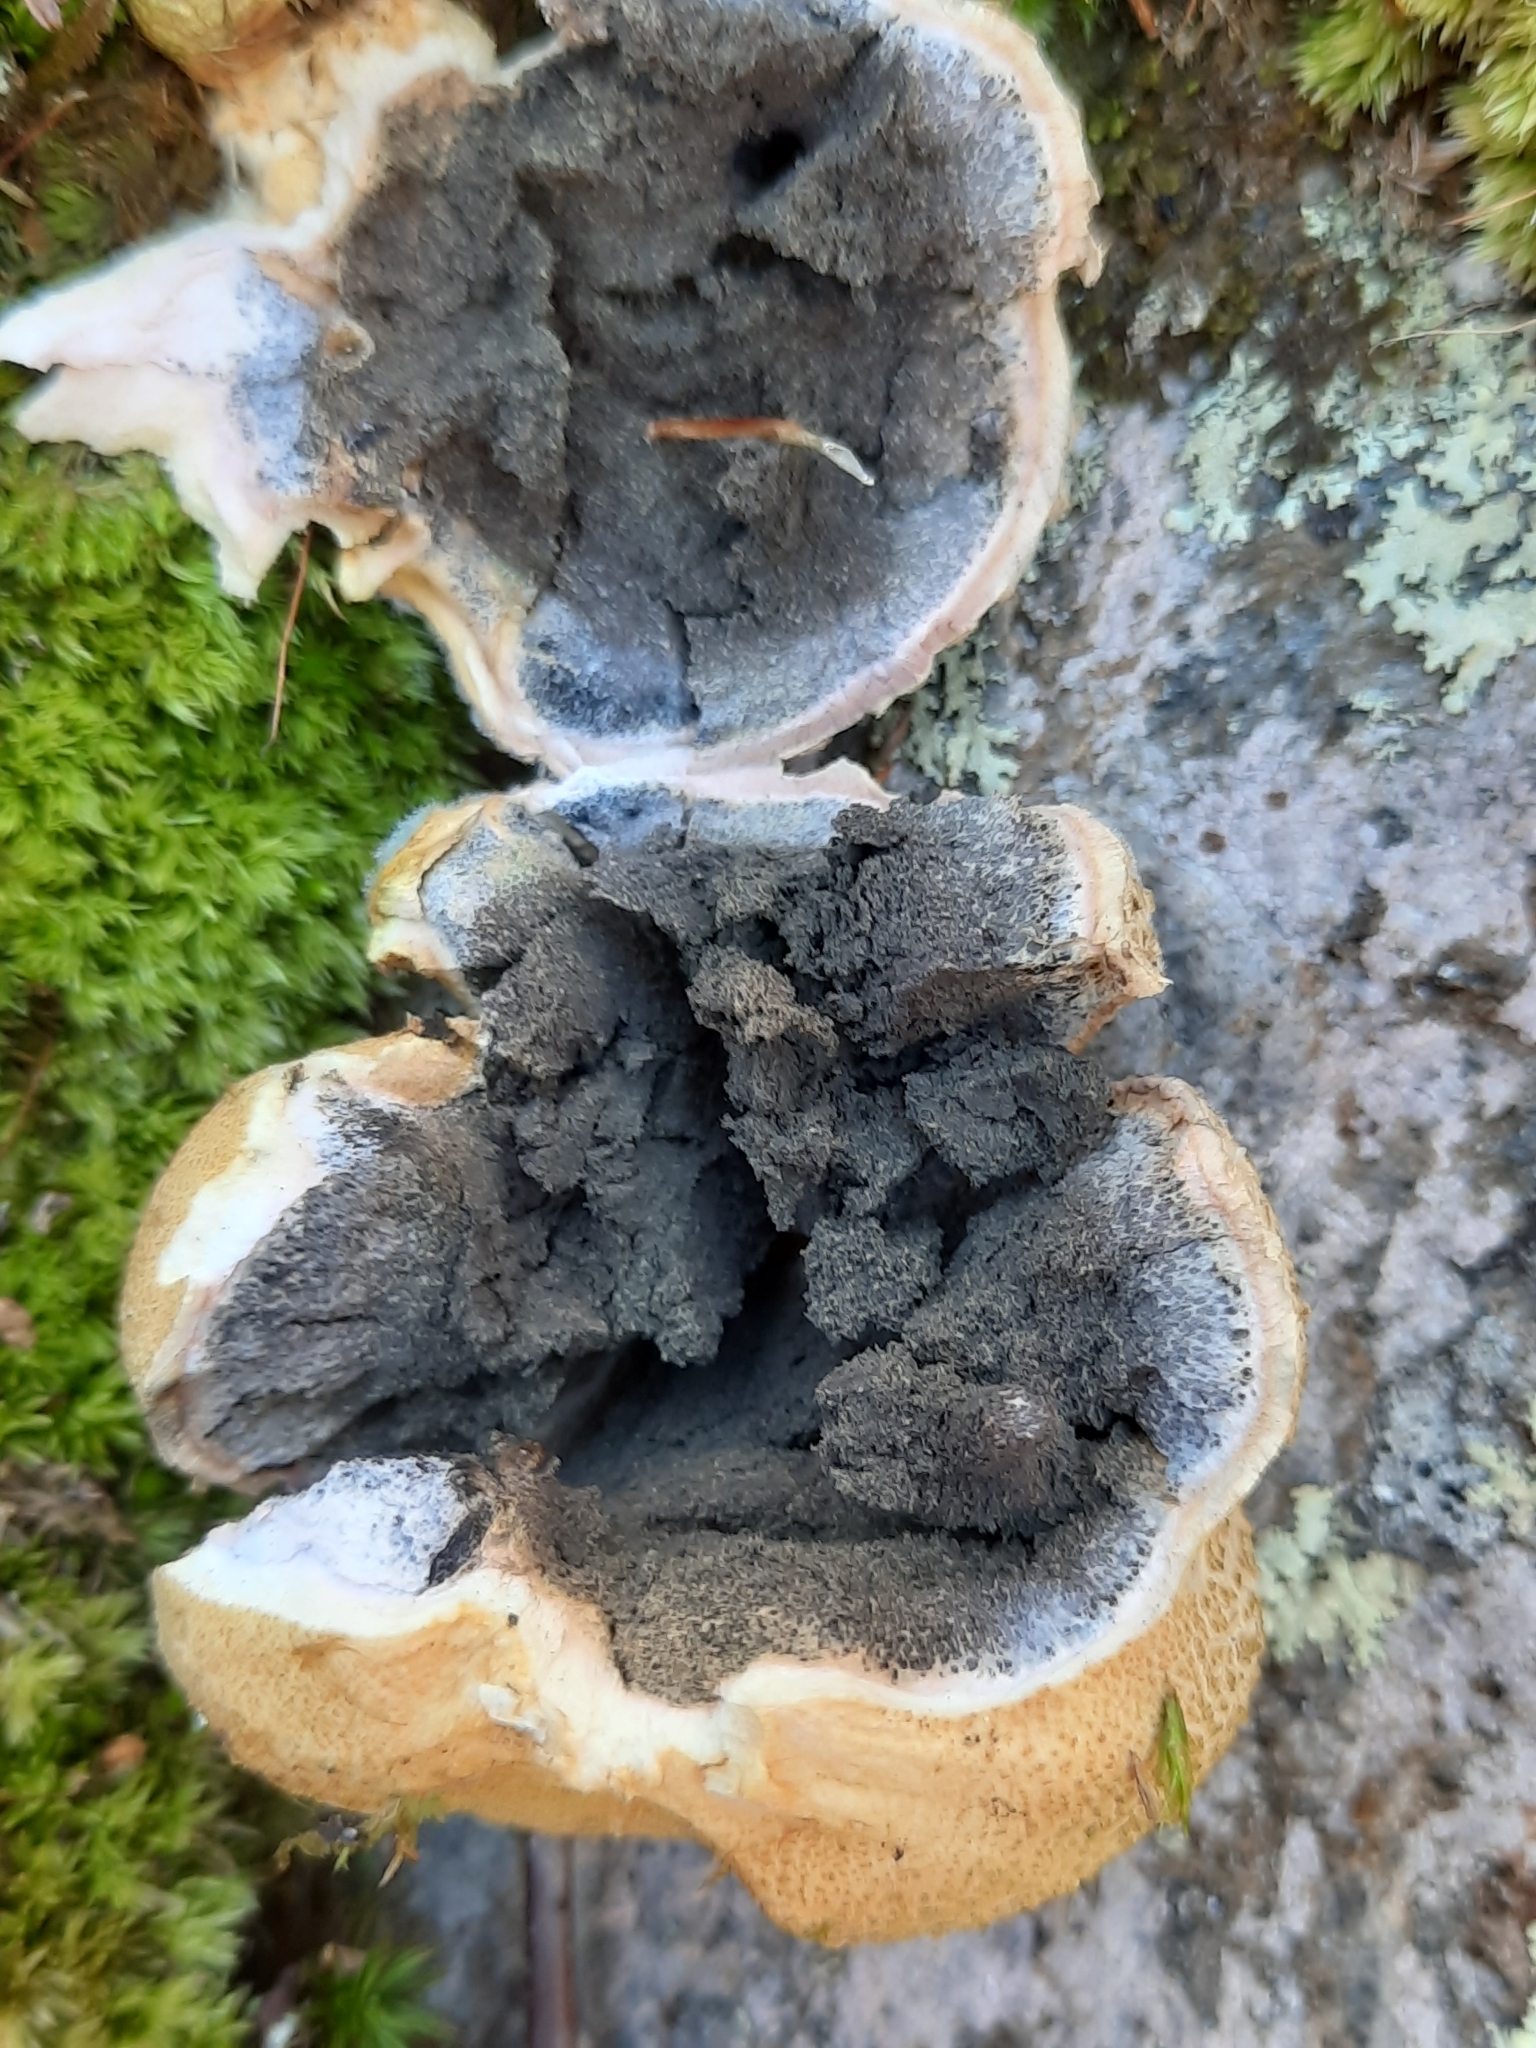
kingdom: Fungi
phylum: Basidiomycota
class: Agaricomycetes
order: Boletales
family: Sclerodermataceae
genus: Scleroderma
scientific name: Scleroderma citrinum
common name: Common earthball
